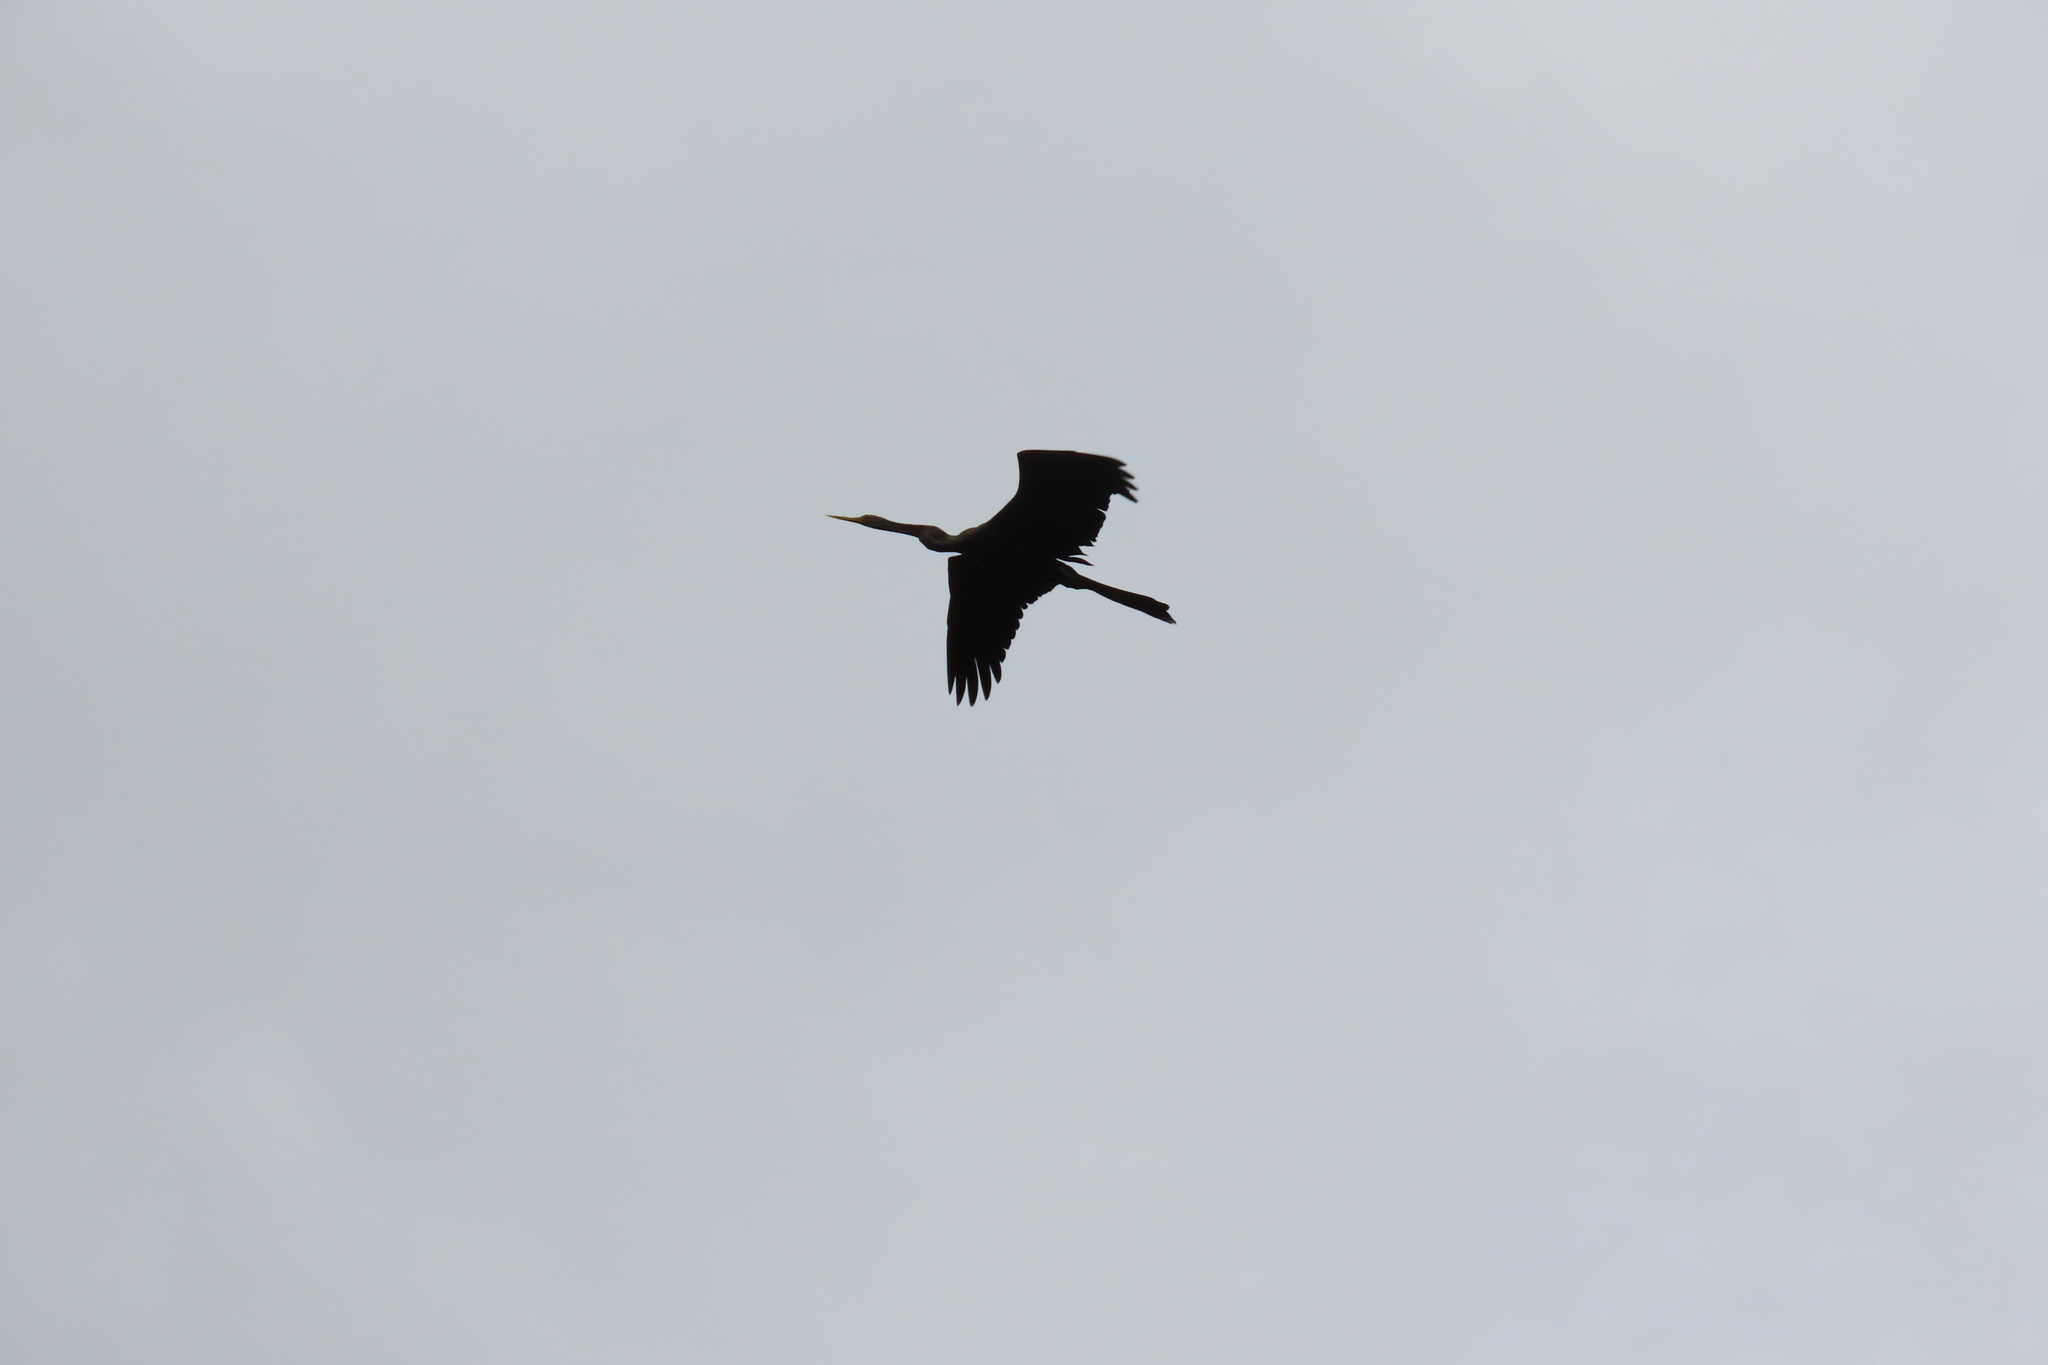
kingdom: Animalia
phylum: Chordata
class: Aves
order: Suliformes
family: Anhingidae
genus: Anhinga
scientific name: Anhinga melanogaster
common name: Oriental darter
